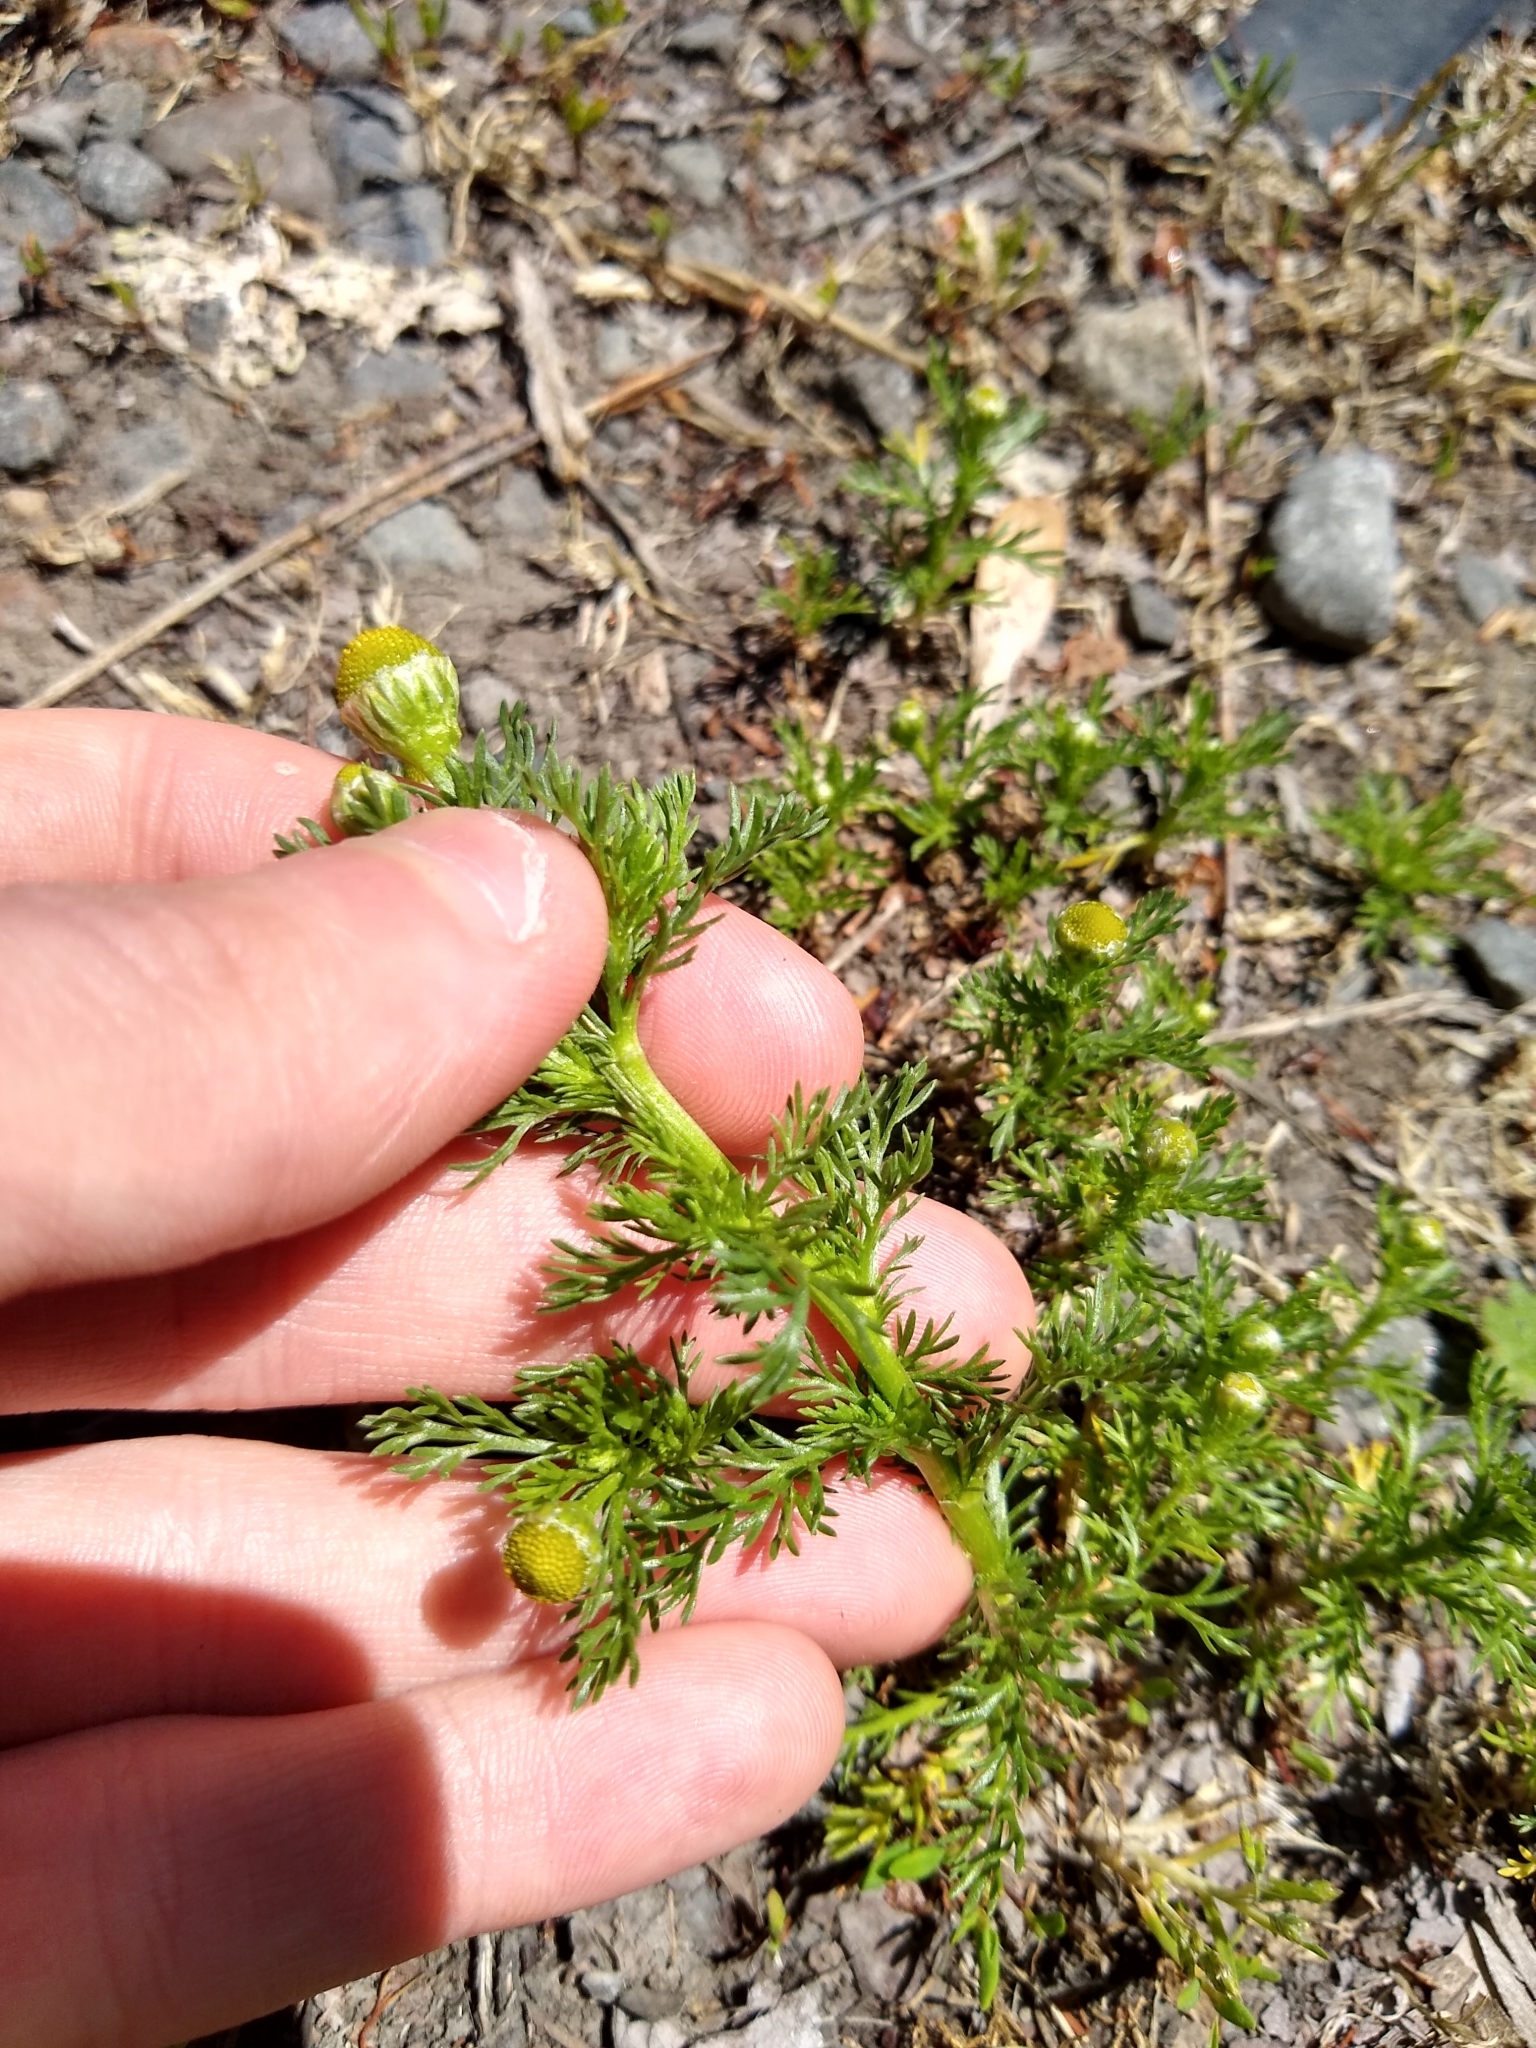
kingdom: Plantae
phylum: Tracheophyta
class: Magnoliopsida
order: Asterales
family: Asteraceae
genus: Matricaria
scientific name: Matricaria discoidea
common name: Disc mayweed
